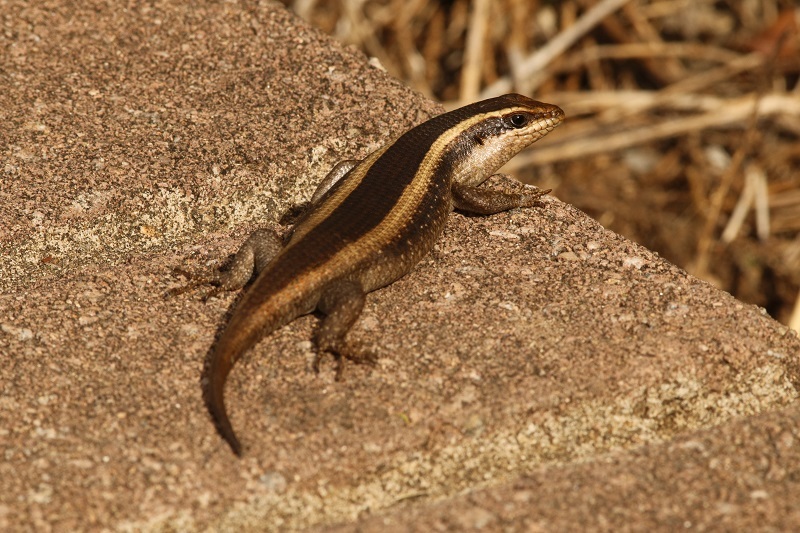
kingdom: Animalia
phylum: Chordata
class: Squamata
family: Scincidae
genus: Trachylepis
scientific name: Trachylepis striata
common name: African striped mabuya
